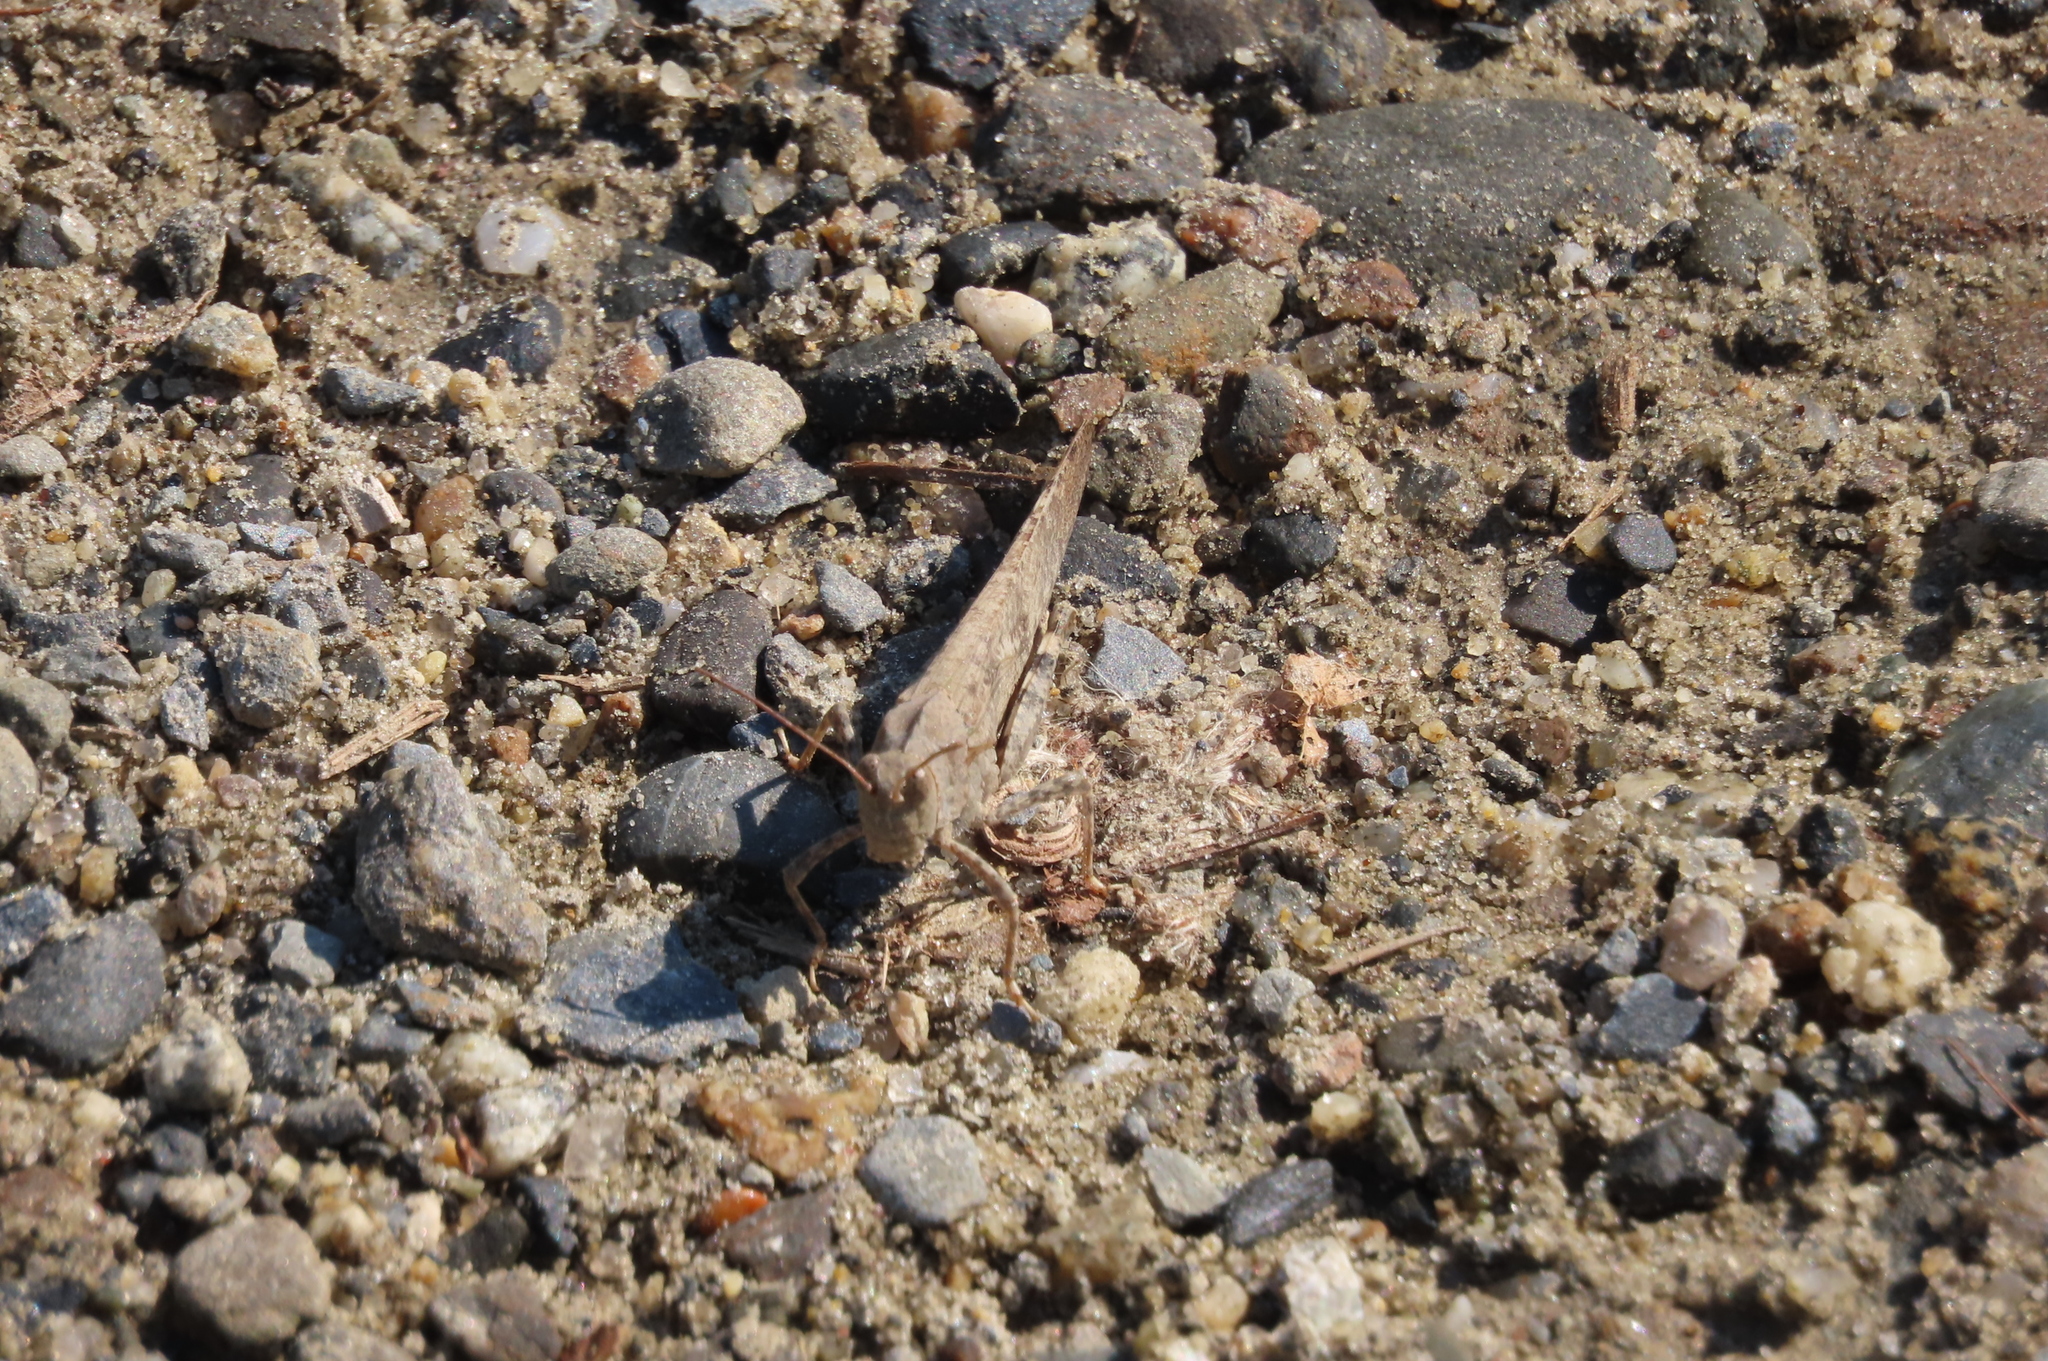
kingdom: Animalia
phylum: Arthropoda
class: Insecta
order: Orthoptera
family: Acrididae
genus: Dissosteira
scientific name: Dissosteira carolina
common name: Carolina grasshopper
